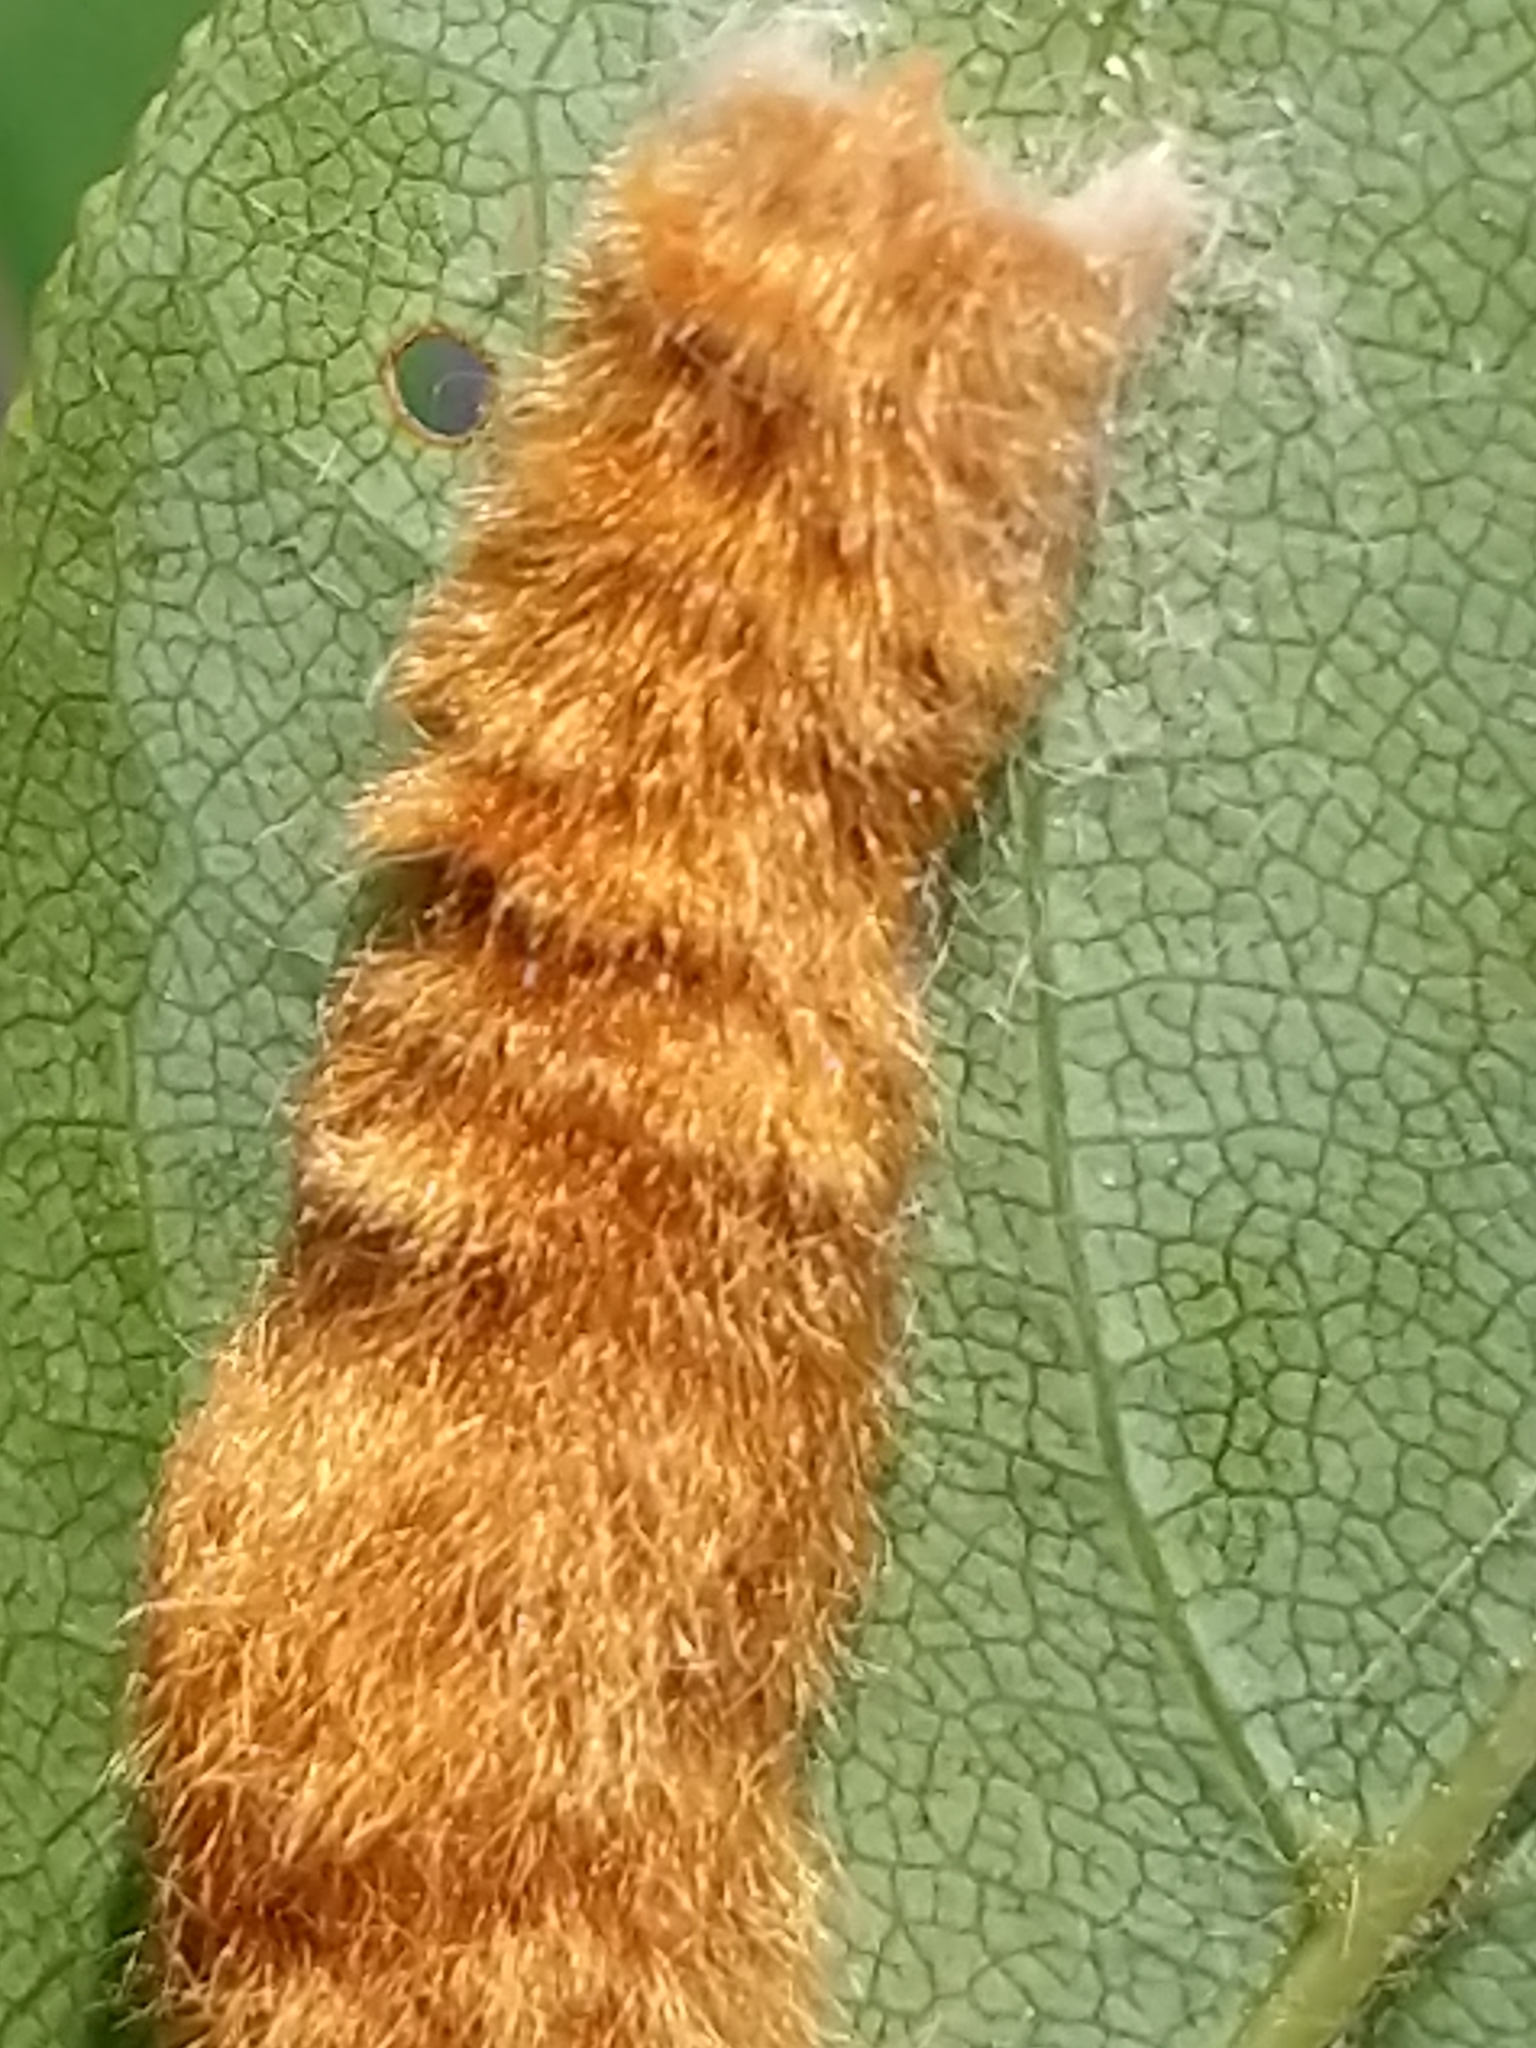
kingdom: Animalia
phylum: Arthropoda
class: Insecta
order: Lepidoptera
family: Erebidae
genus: Euproctis
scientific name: Euproctis chrysorrhoea
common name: Brown-tail
